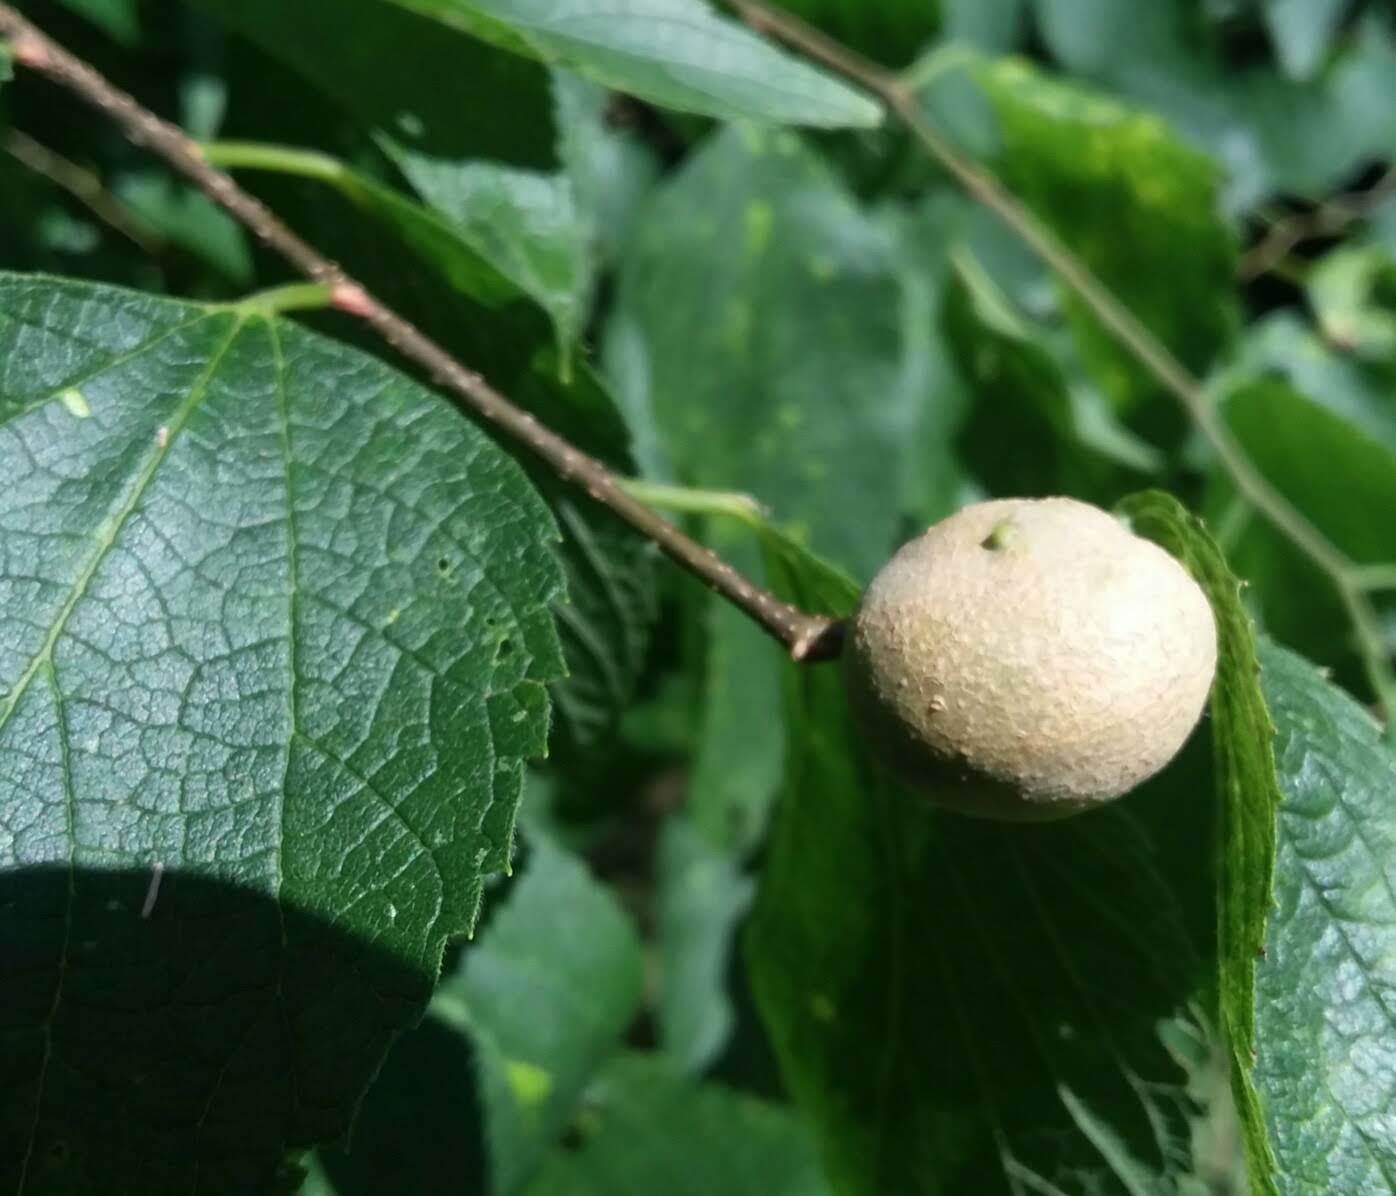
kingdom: Animalia
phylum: Arthropoda
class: Insecta
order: Hemiptera
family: Aphalaridae
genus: Pachypsylla
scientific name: Pachypsylla venusta
